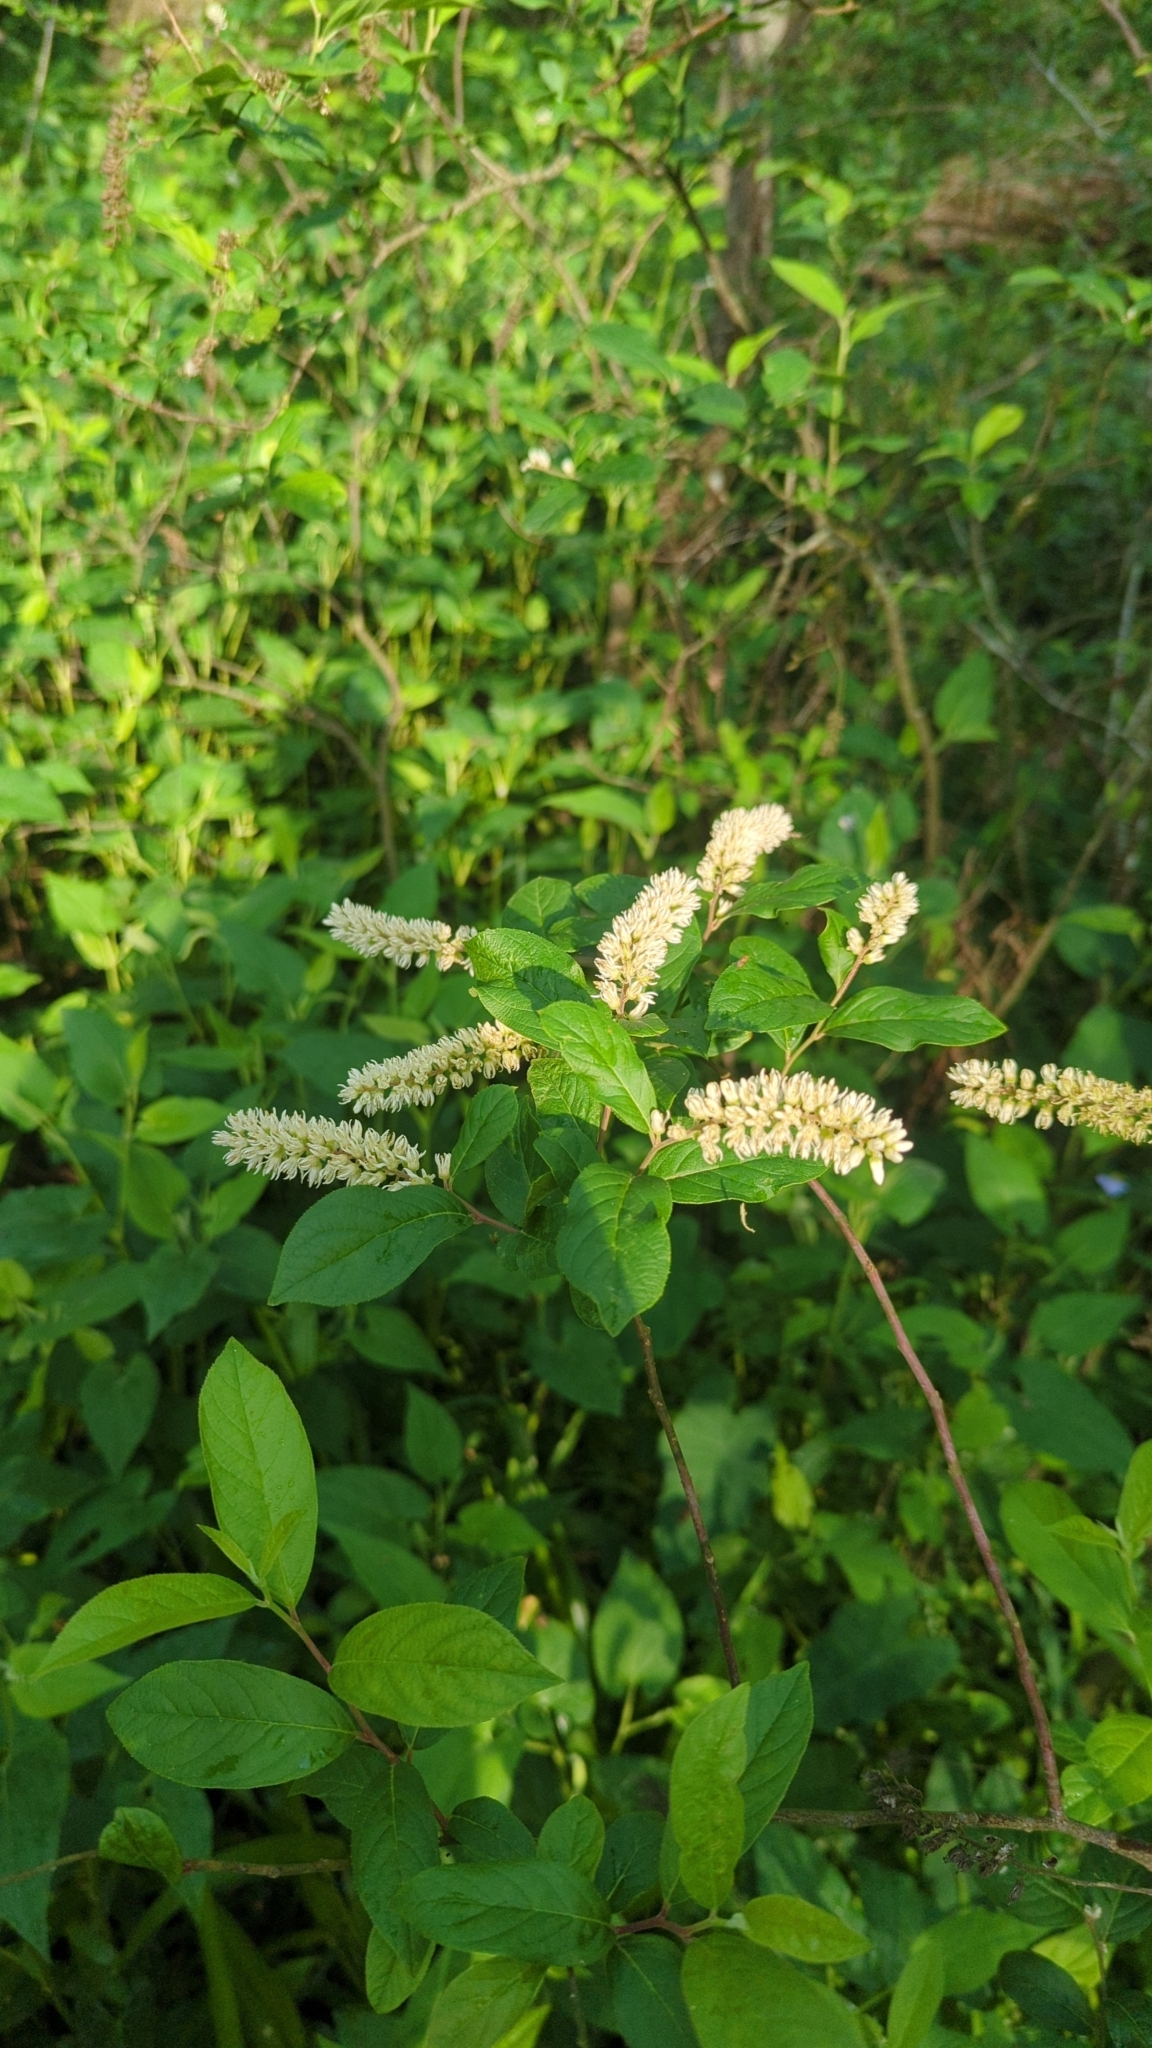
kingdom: Plantae
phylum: Tracheophyta
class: Magnoliopsida
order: Saxifragales
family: Iteaceae
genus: Itea
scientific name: Itea virginica
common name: Sweetspire
